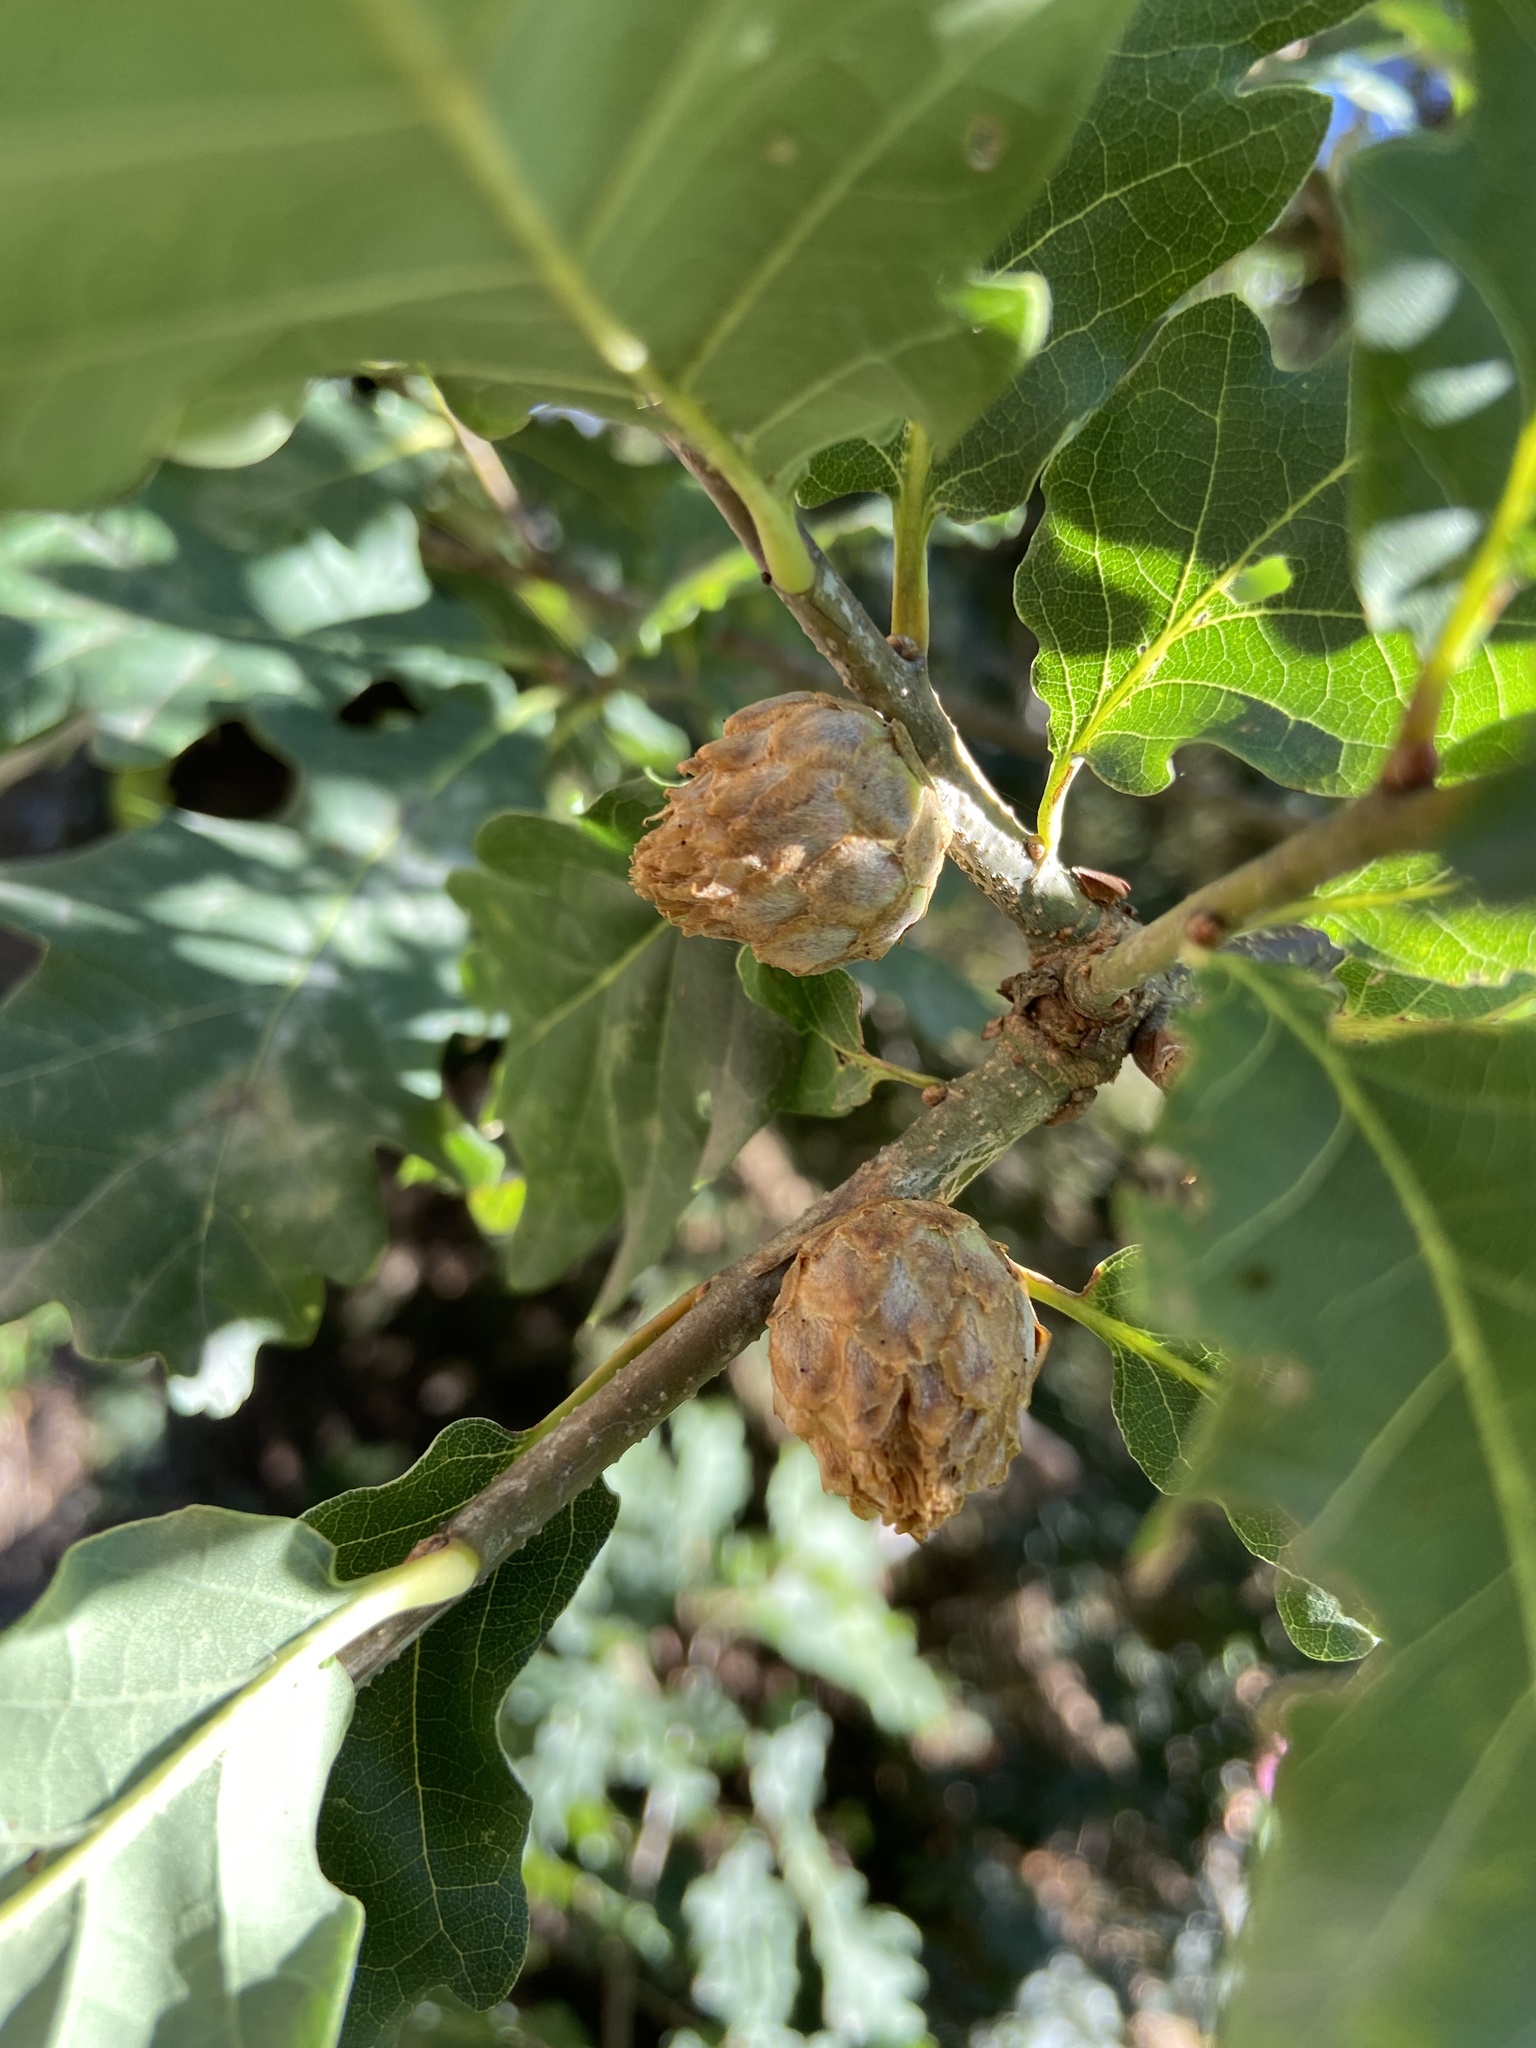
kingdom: Animalia
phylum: Arthropoda
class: Insecta
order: Hymenoptera
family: Cynipidae
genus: Andricus
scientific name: Andricus foecundatrix
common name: Artichoke gall
